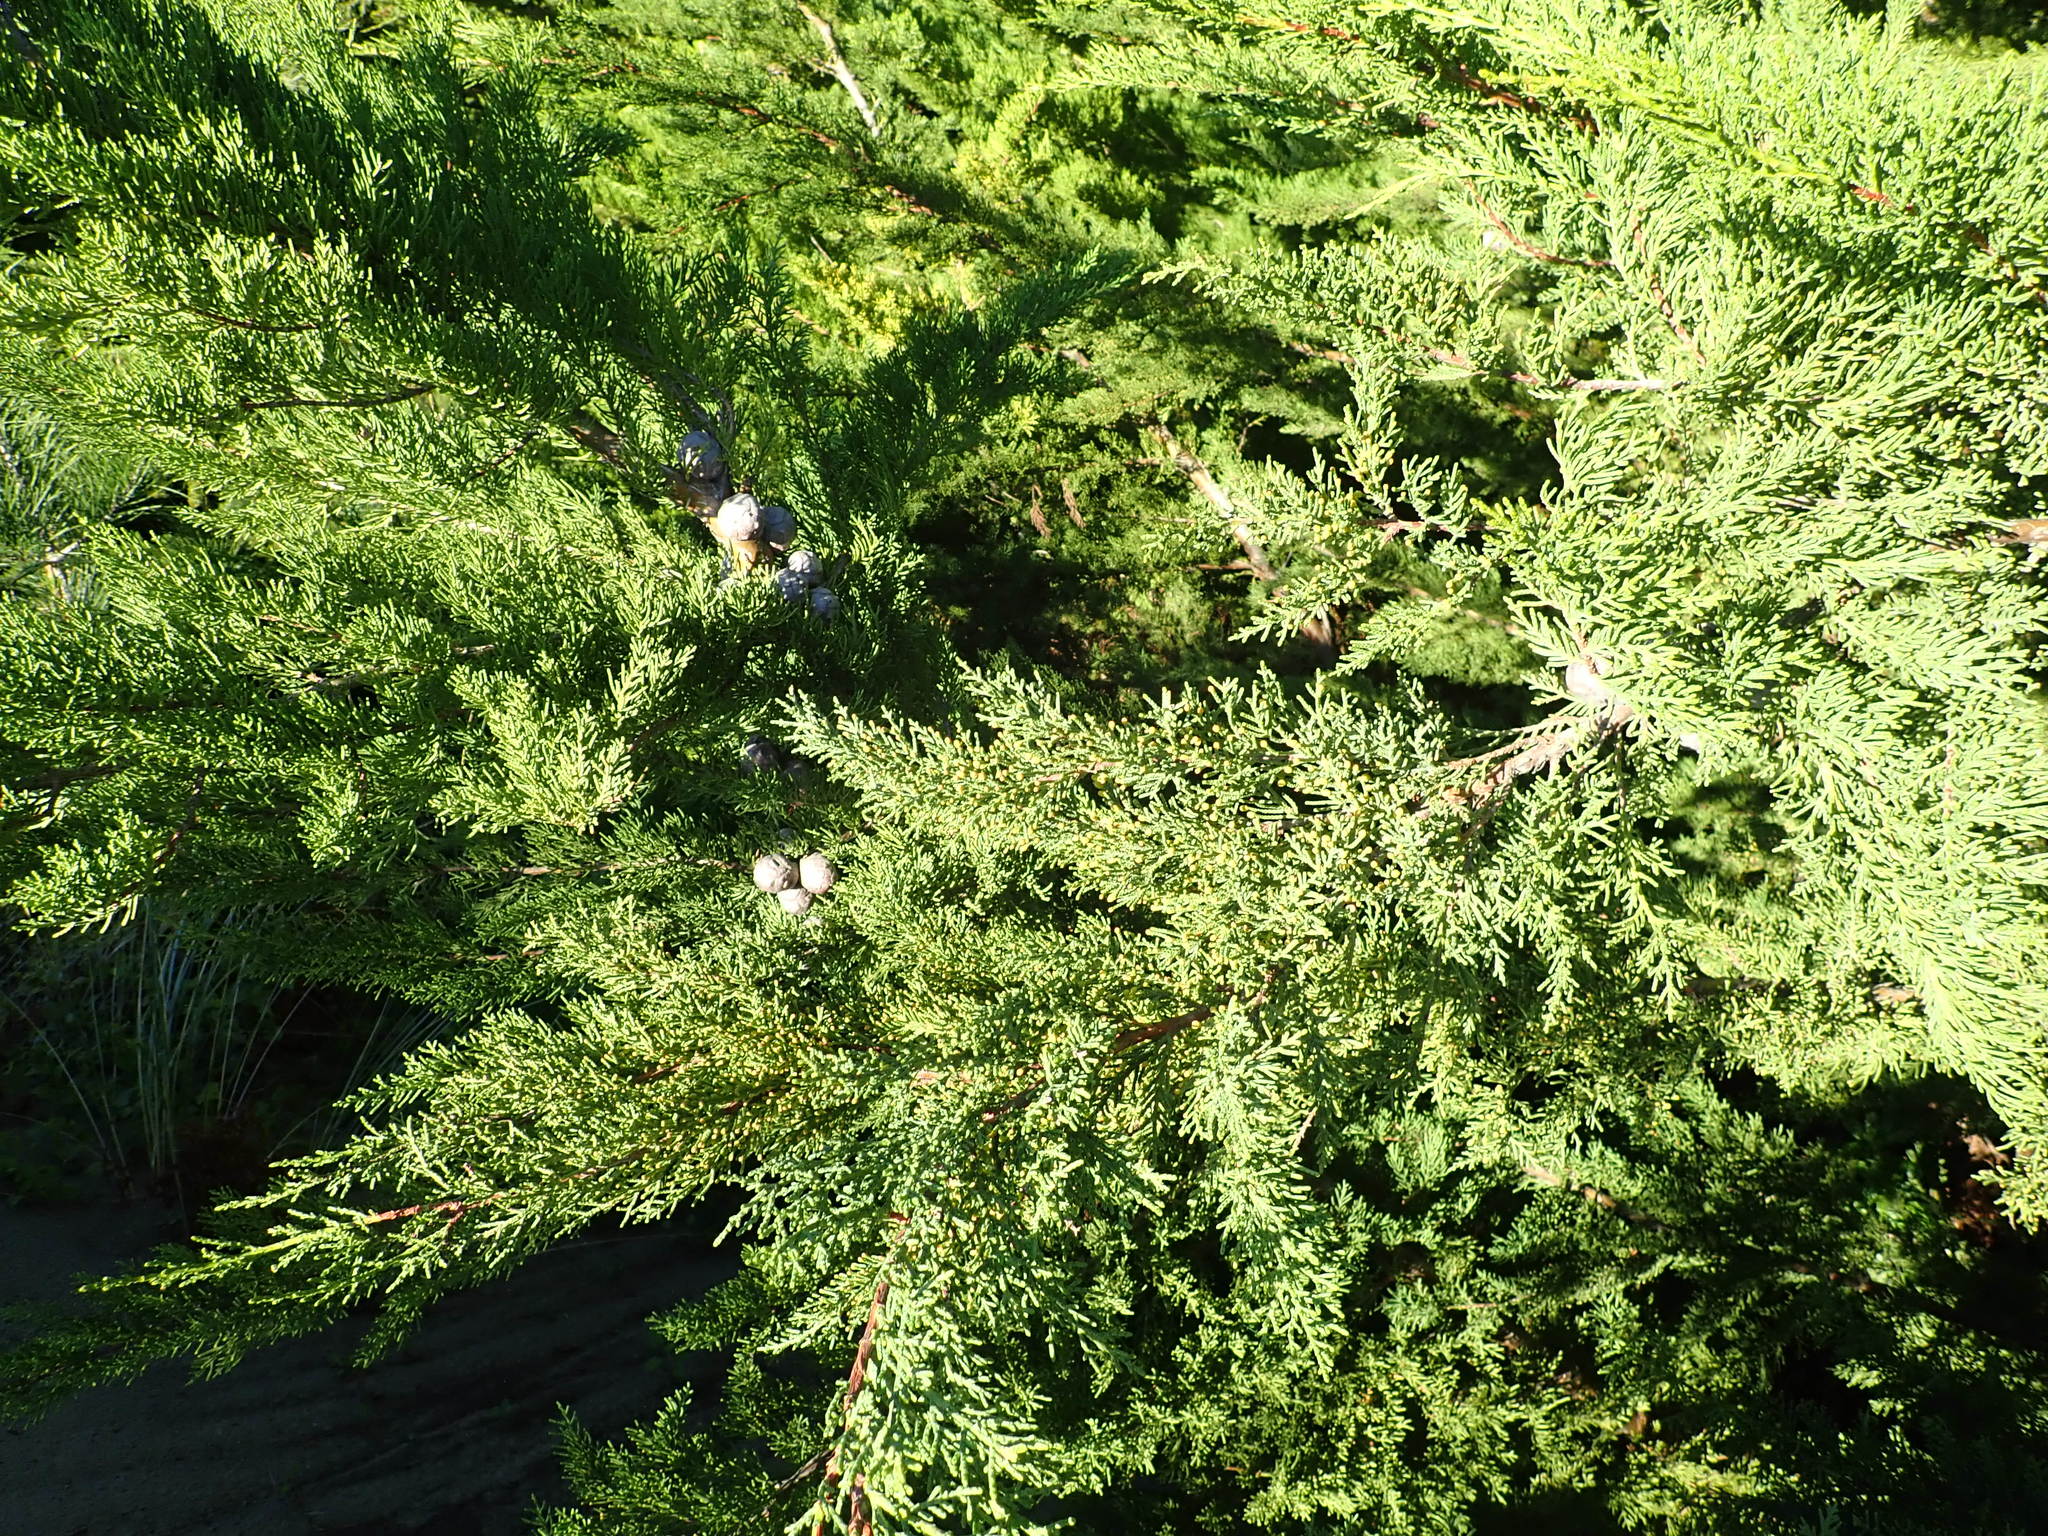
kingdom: Plantae
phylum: Tracheophyta
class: Pinopsida
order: Pinales
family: Cupressaceae
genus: Cupressus
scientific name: Cupressus macrocarpa
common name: Monterey cypress
